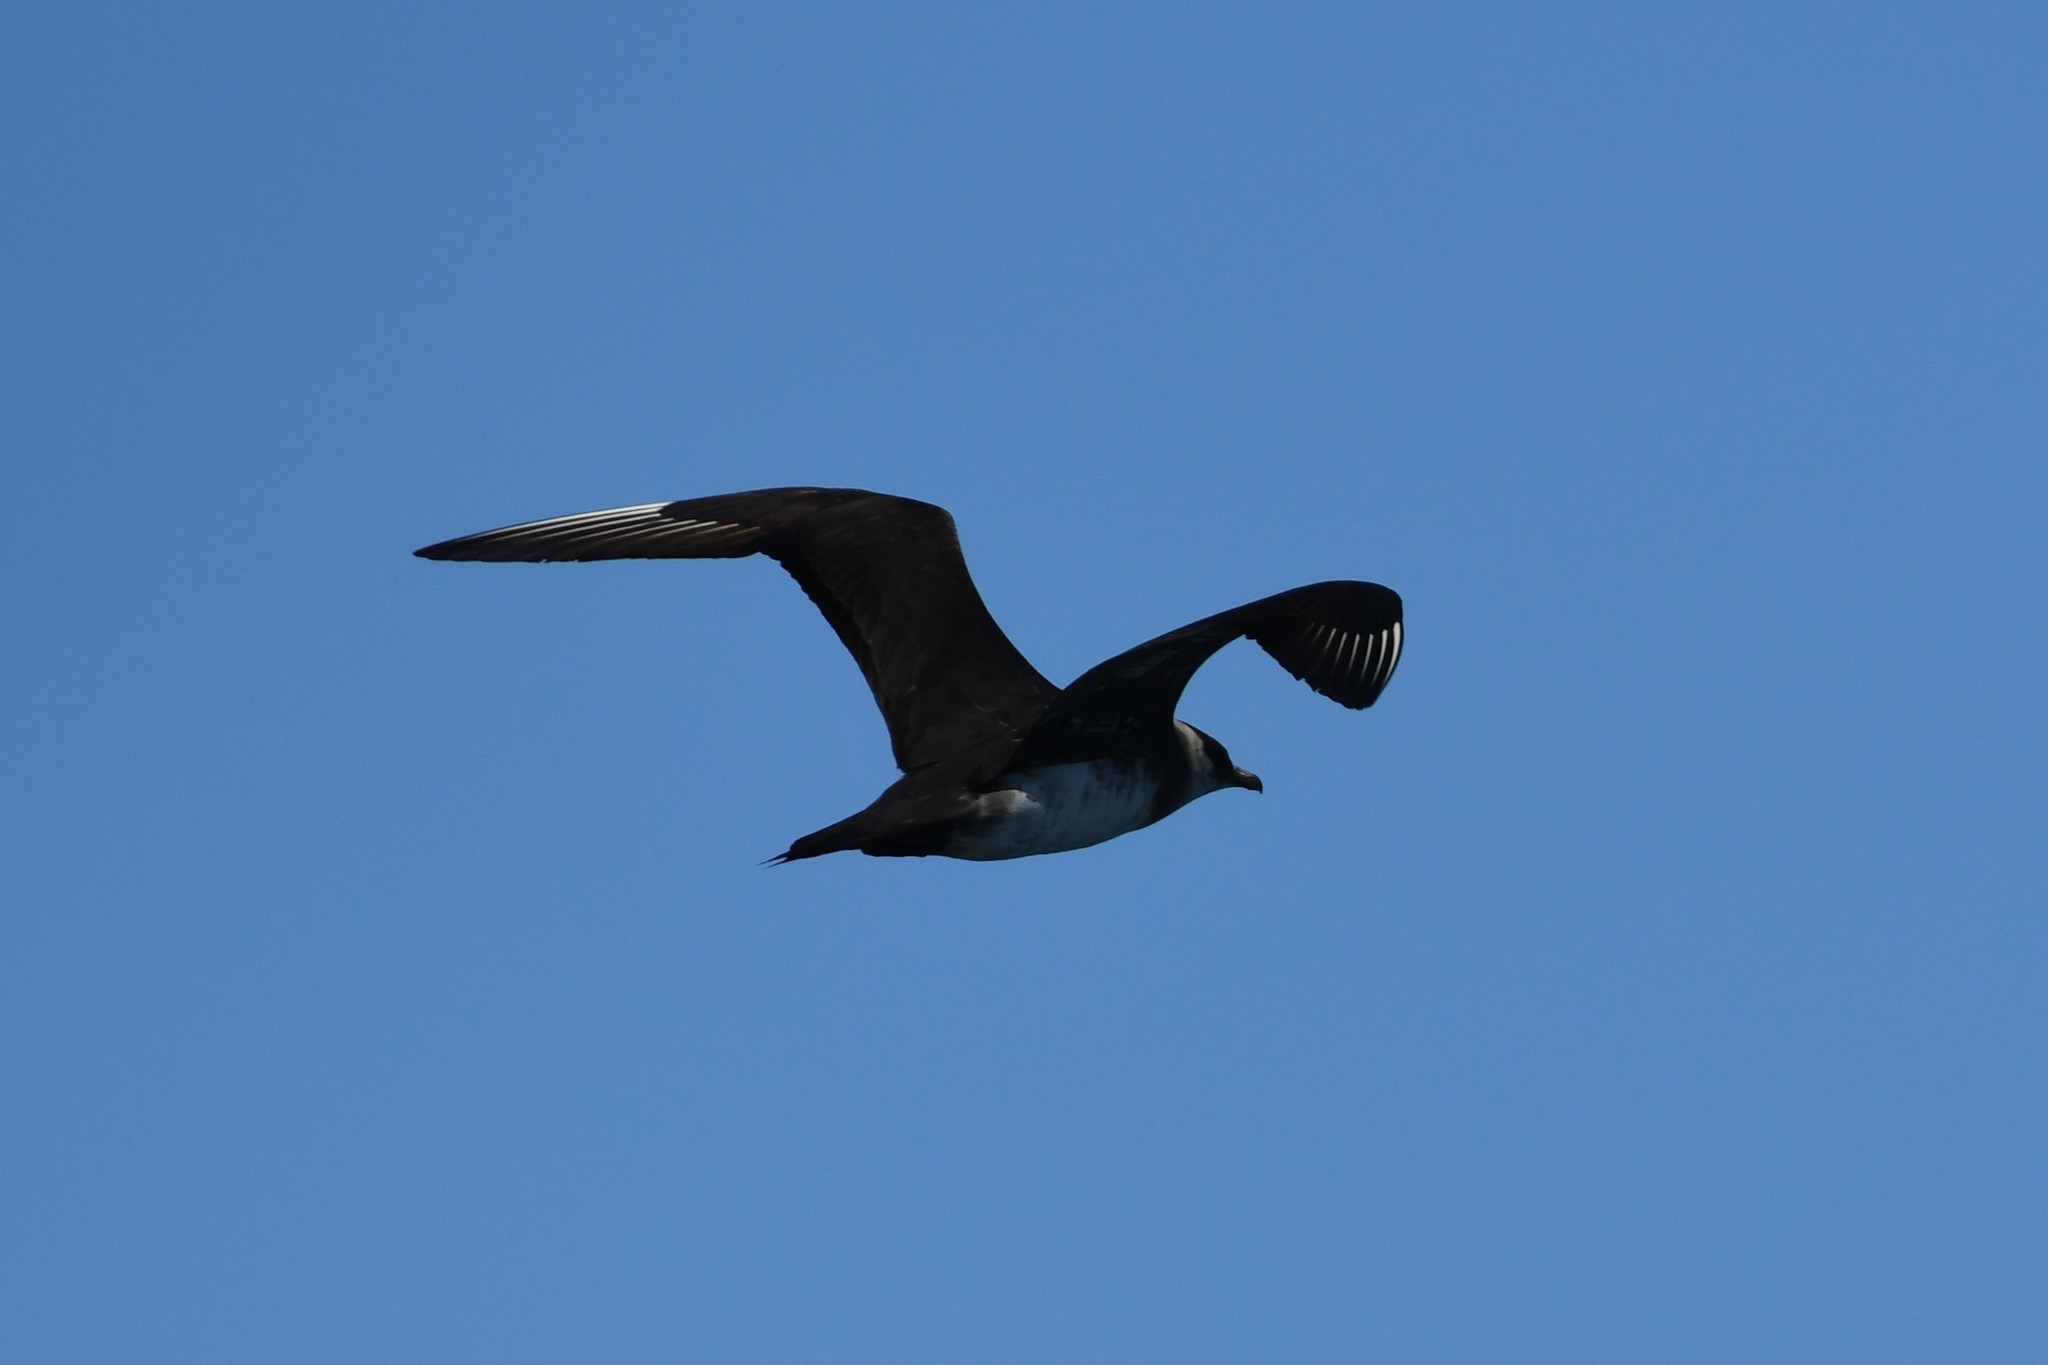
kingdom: Animalia
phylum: Chordata
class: Aves
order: Charadriiformes
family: Stercorariidae
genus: Stercorarius
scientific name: Stercorarius parasiticus
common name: Parasitic jaeger
